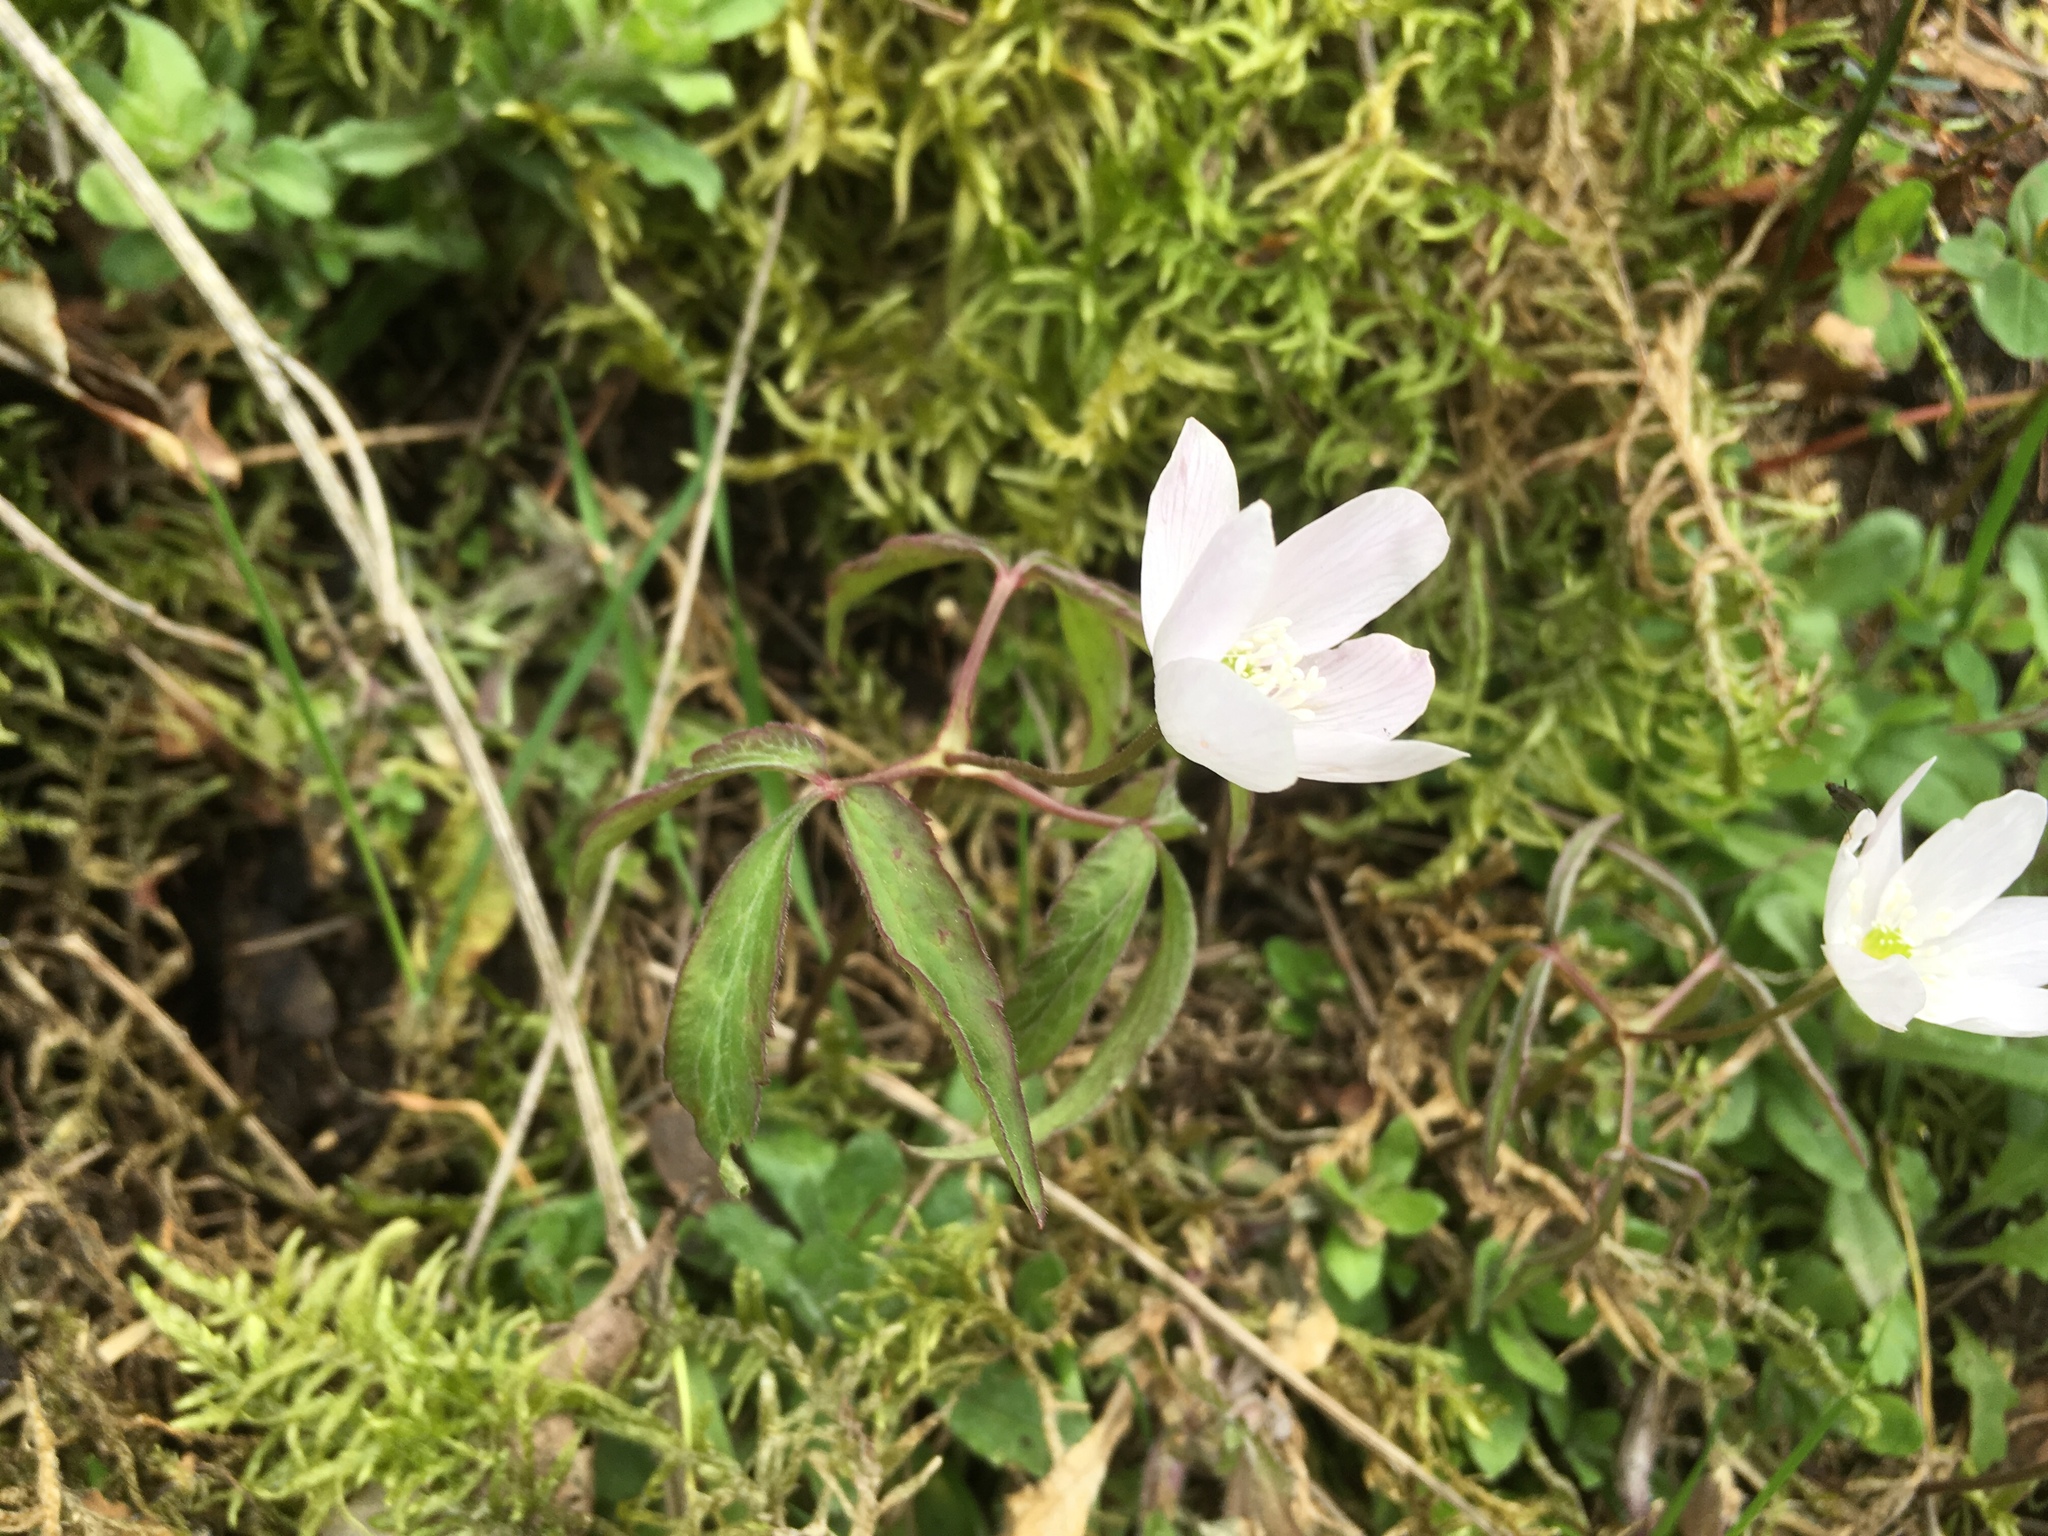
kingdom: Plantae
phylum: Tracheophyta
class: Magnoliopsida
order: Ranunculales
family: Ranunculaceae
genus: Anemone
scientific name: Anemone trifolia
